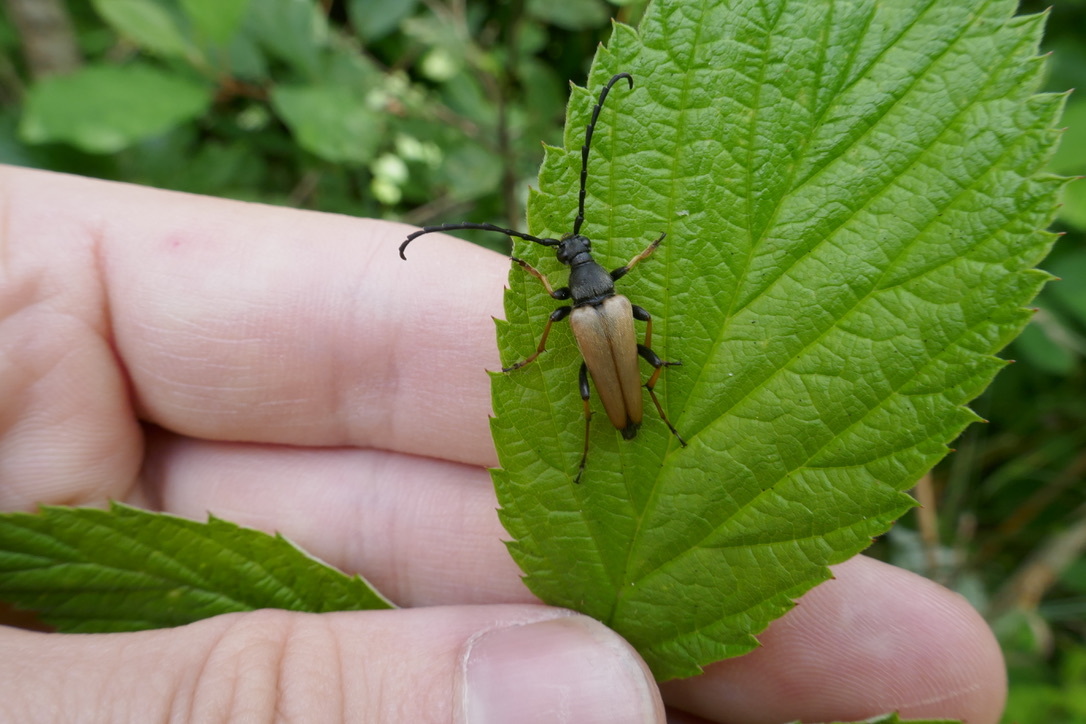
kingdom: Animalia
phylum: Arthropoda
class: Insecta
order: Coleoptera
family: Cerambycidae
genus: Stictoleptura
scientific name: Stictoleptura rubra
